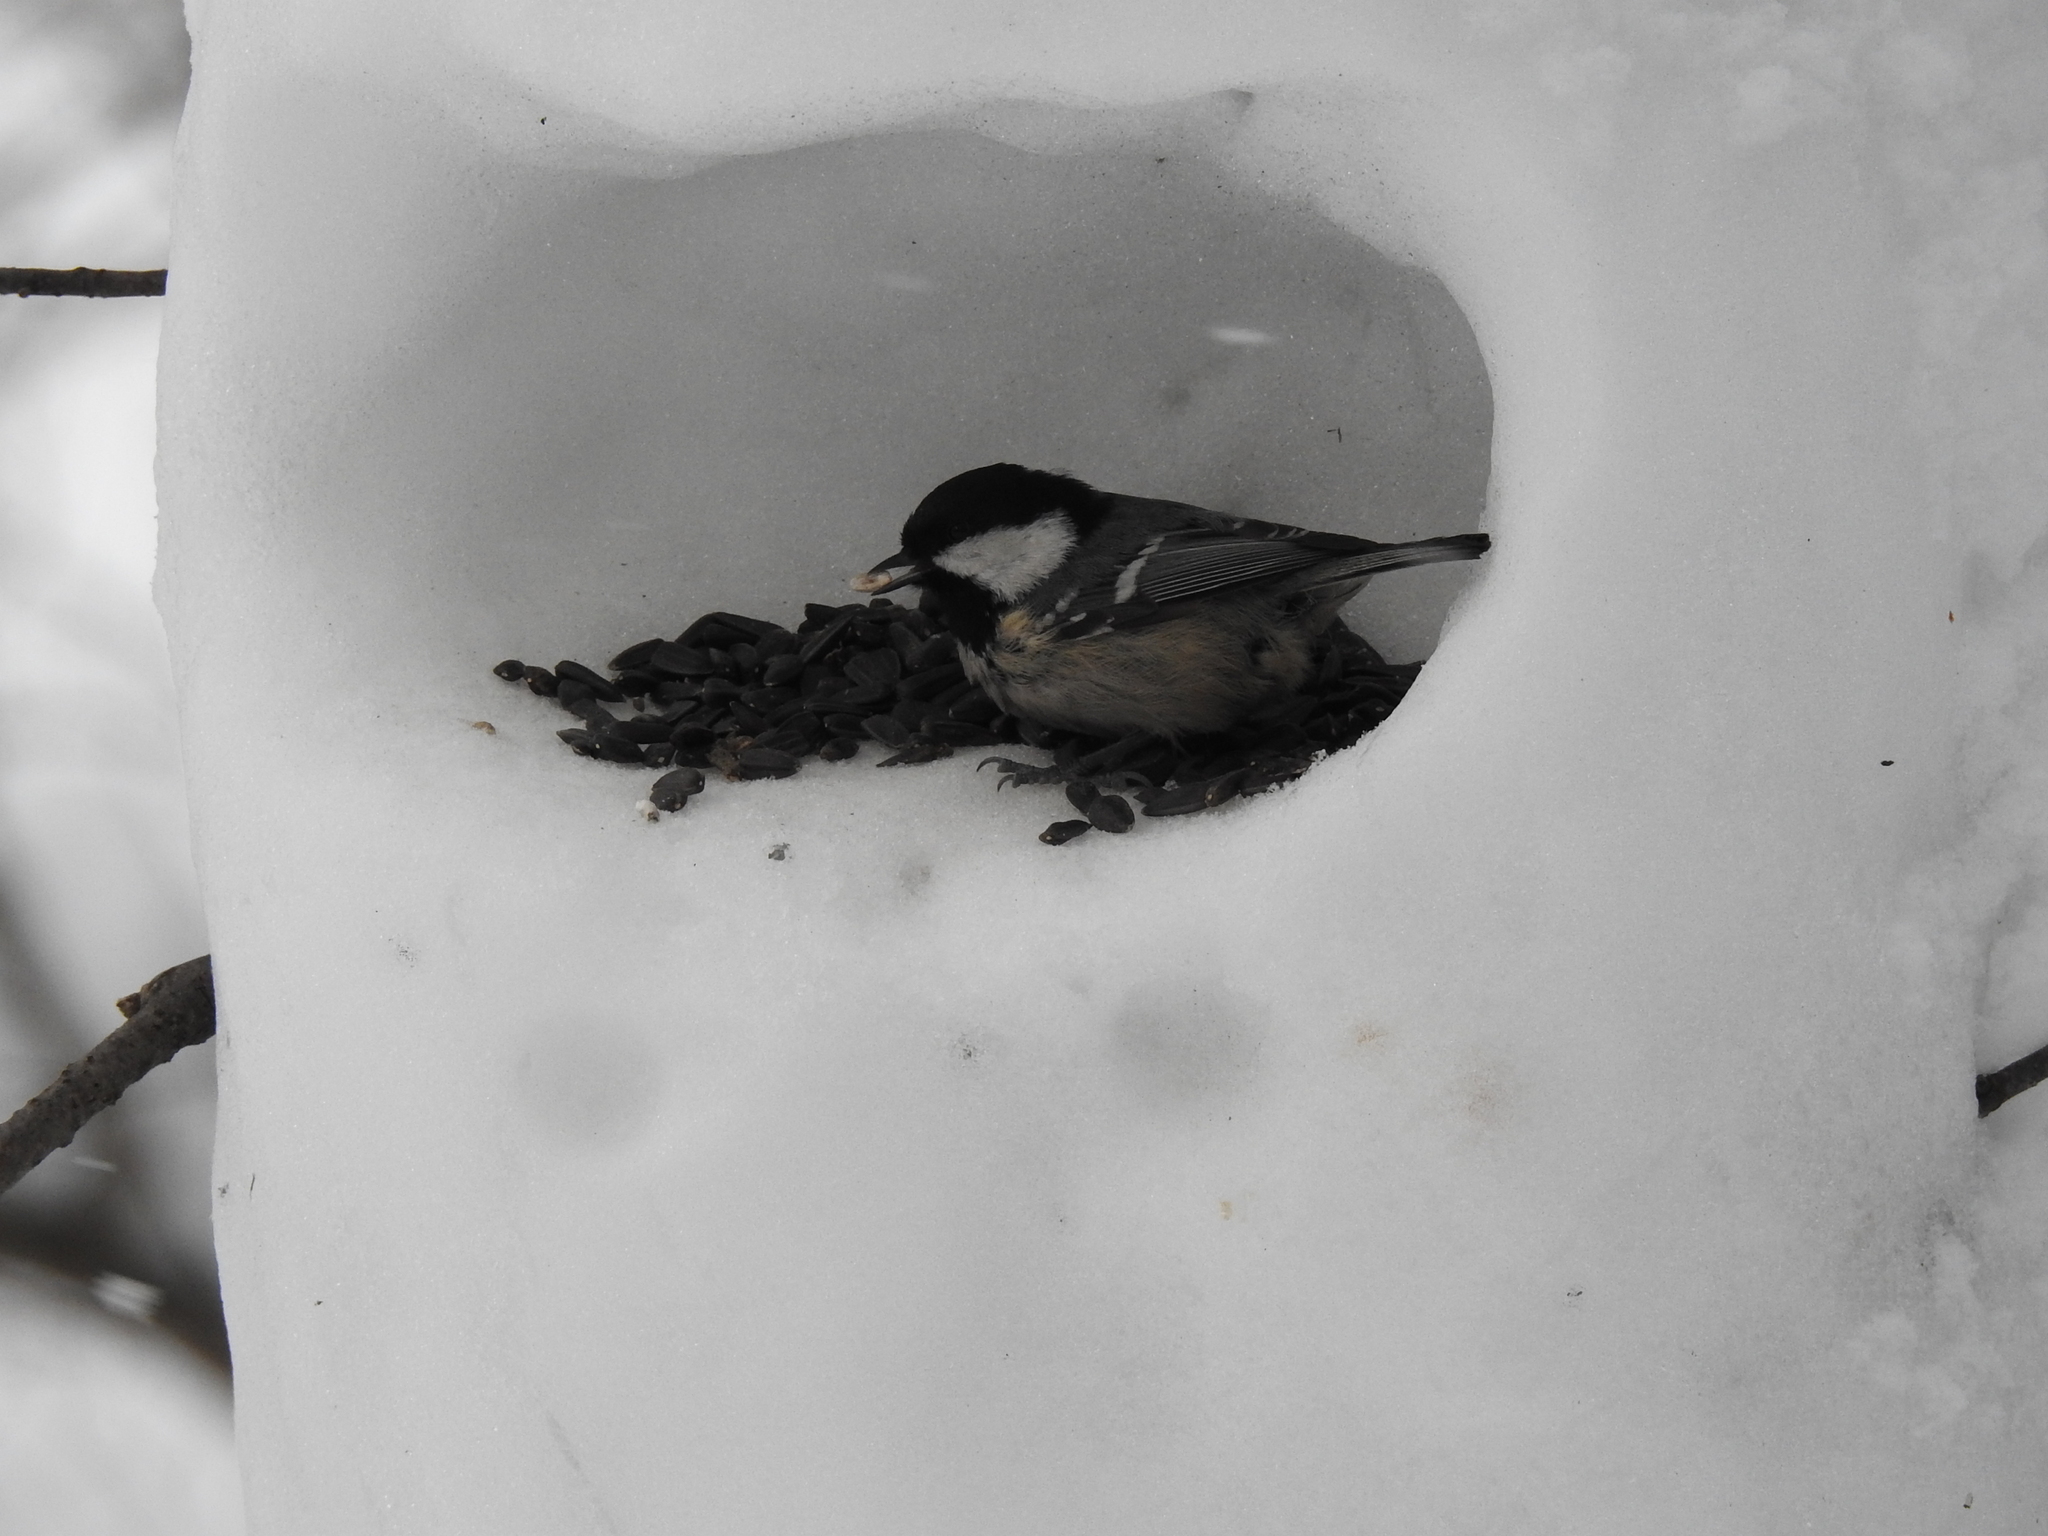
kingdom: Animalia
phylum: Chordata
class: Aves
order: Passeriformes
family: Paridae
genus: Periparus
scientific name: Periparus ater
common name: Coal tit
